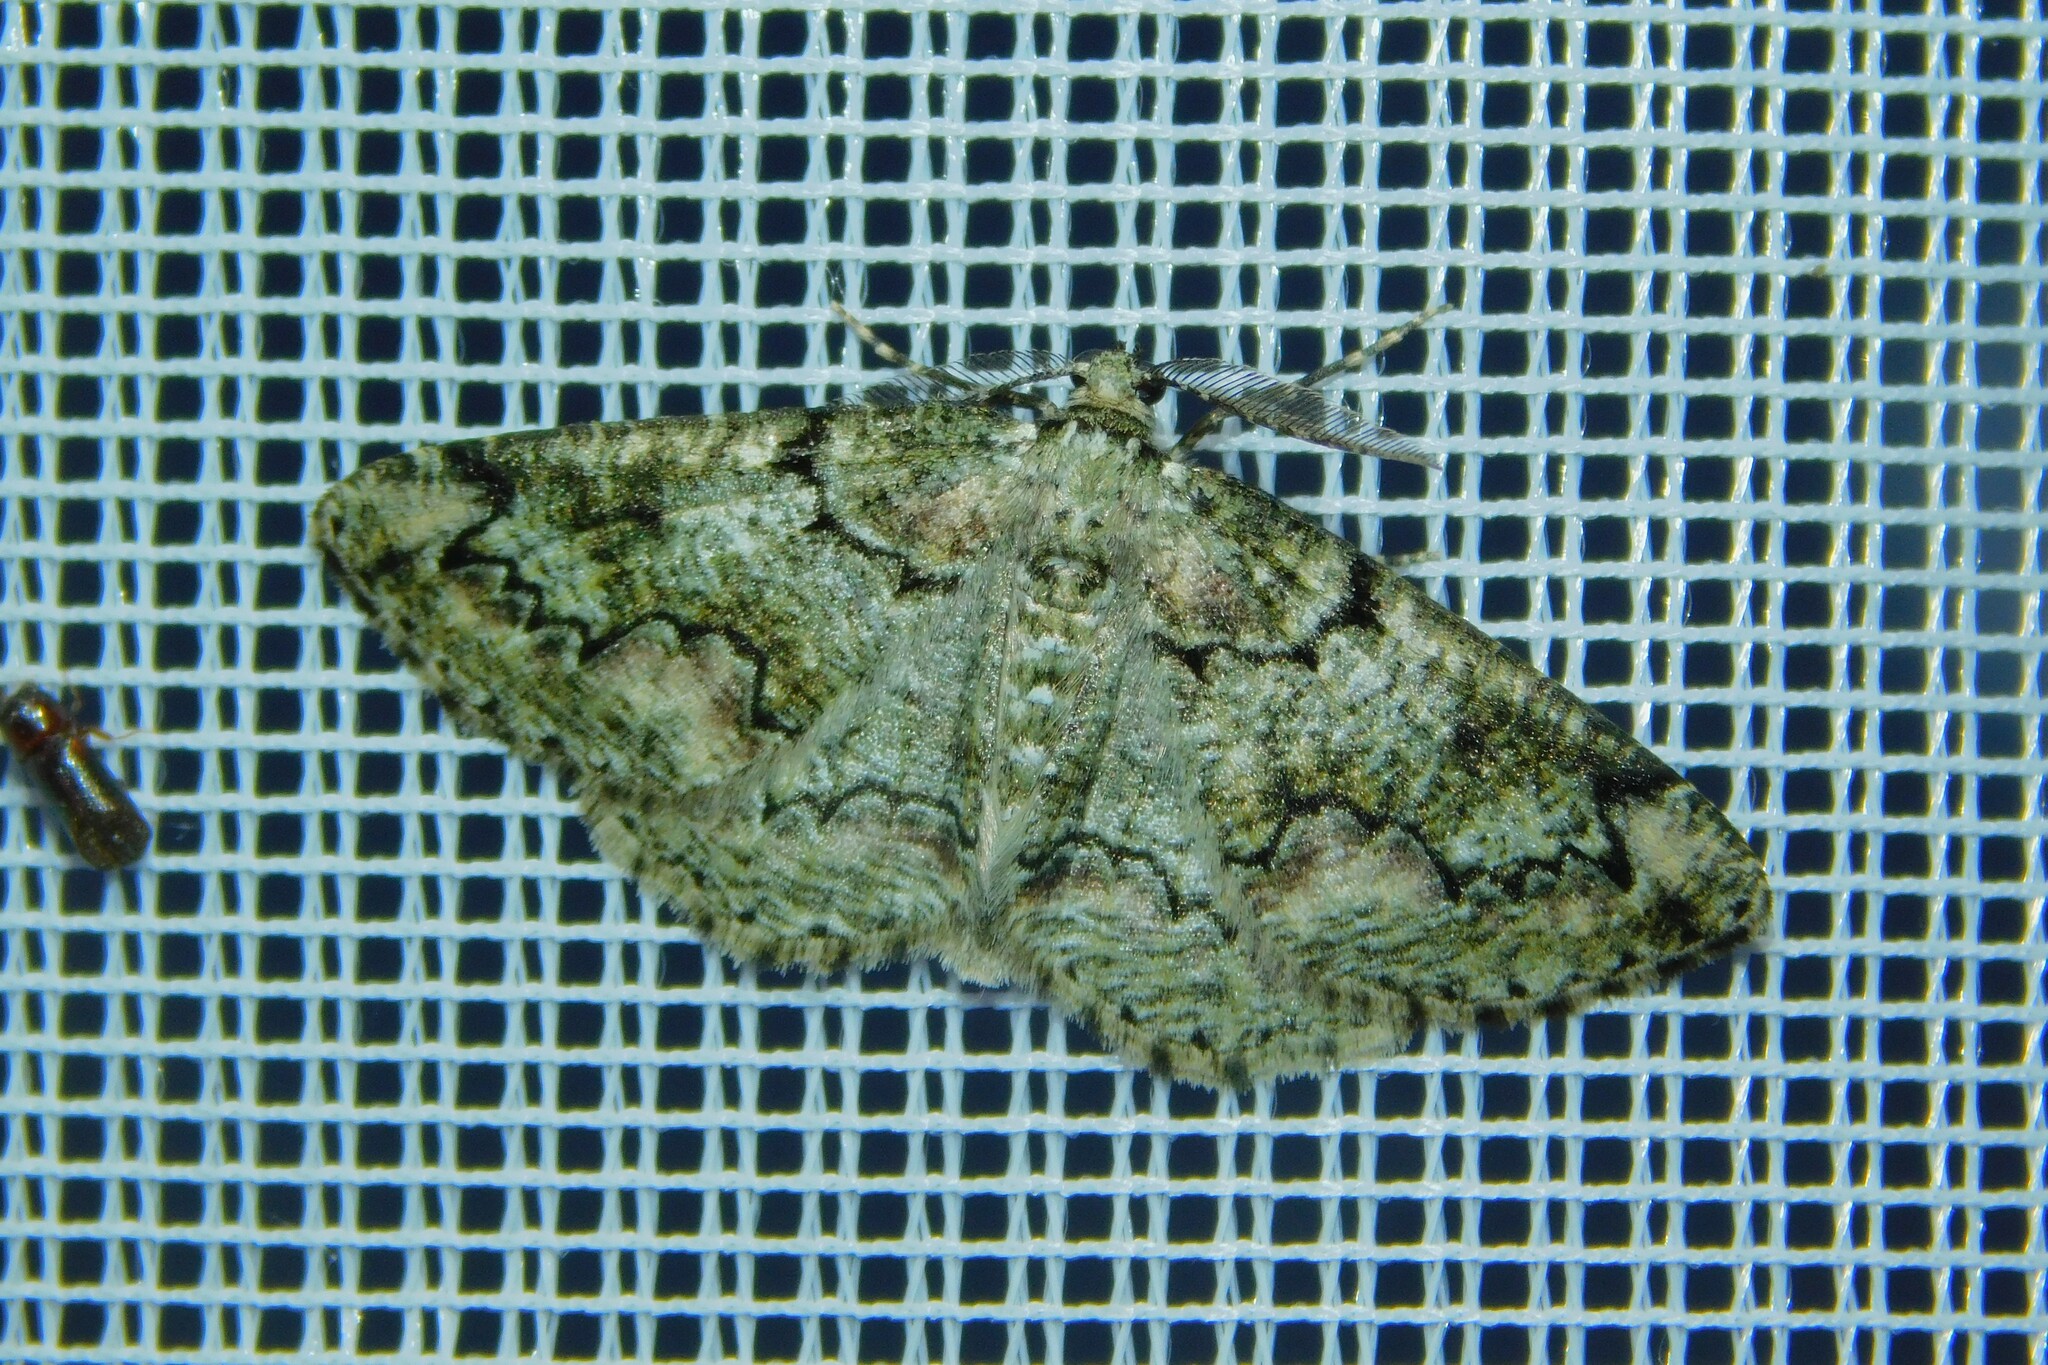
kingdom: Animalia
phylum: Arthropoda
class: Insecta
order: Lepidoptera
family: Geometridae
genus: Cleorodes
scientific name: Cleorodes lichenaria
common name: Brussels lace
